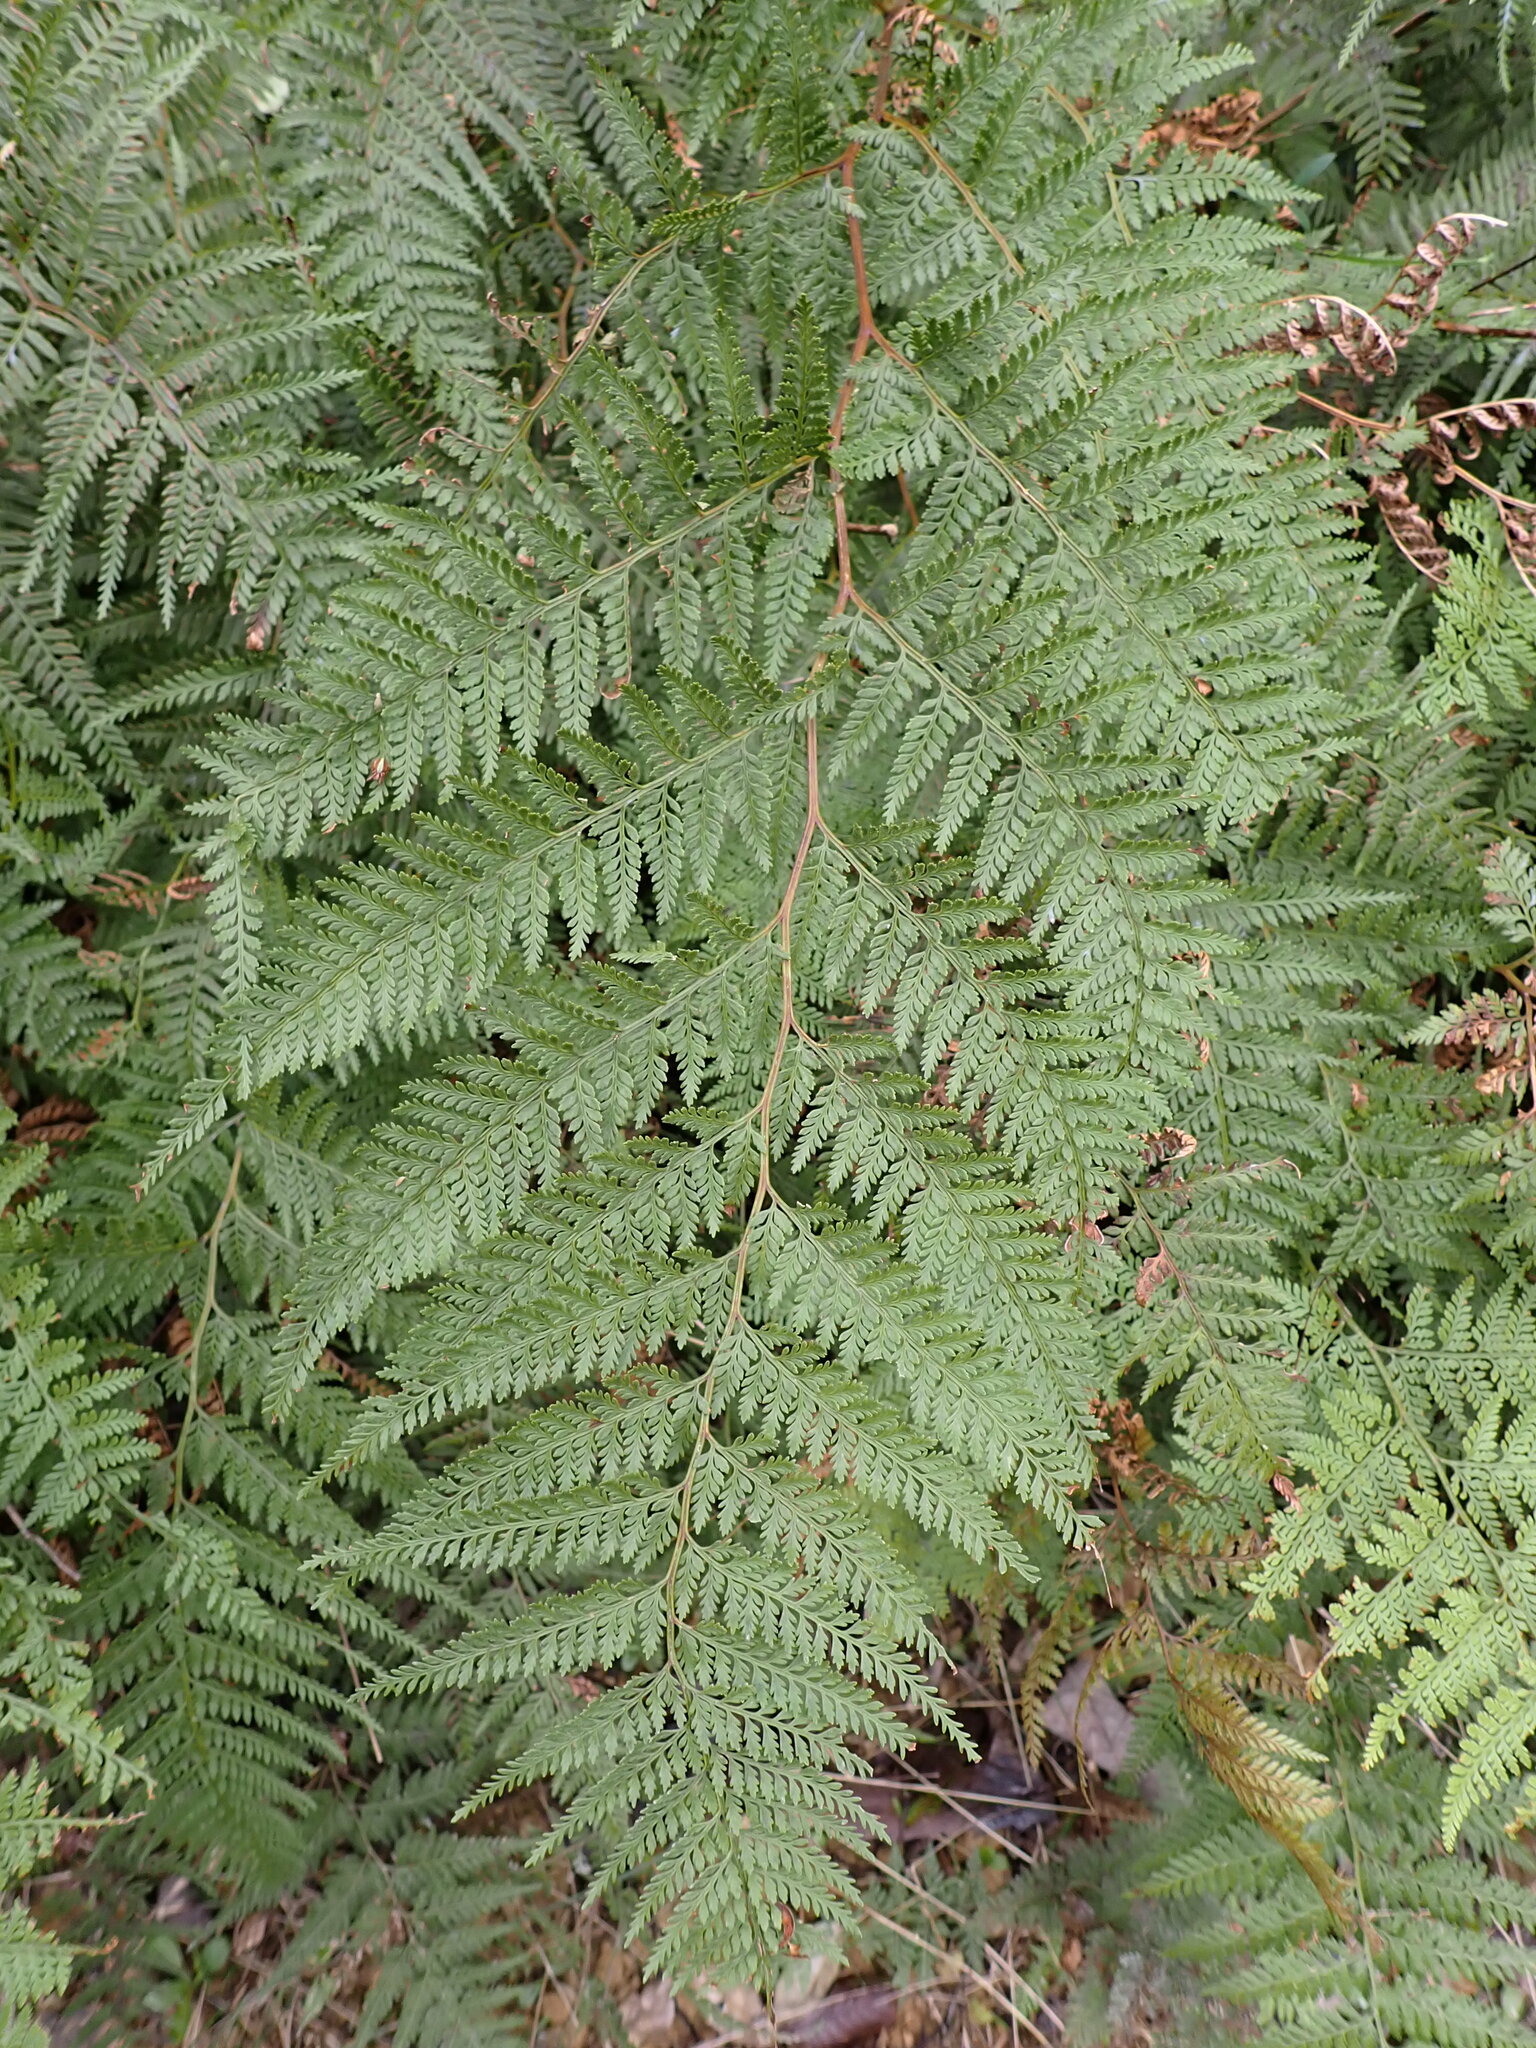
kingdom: Plantae
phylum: Tracheophyta
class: Polypodiopsida
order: Polypodiales
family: Dennstaedtiaceae
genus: Paesia
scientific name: Paesia scaberula
